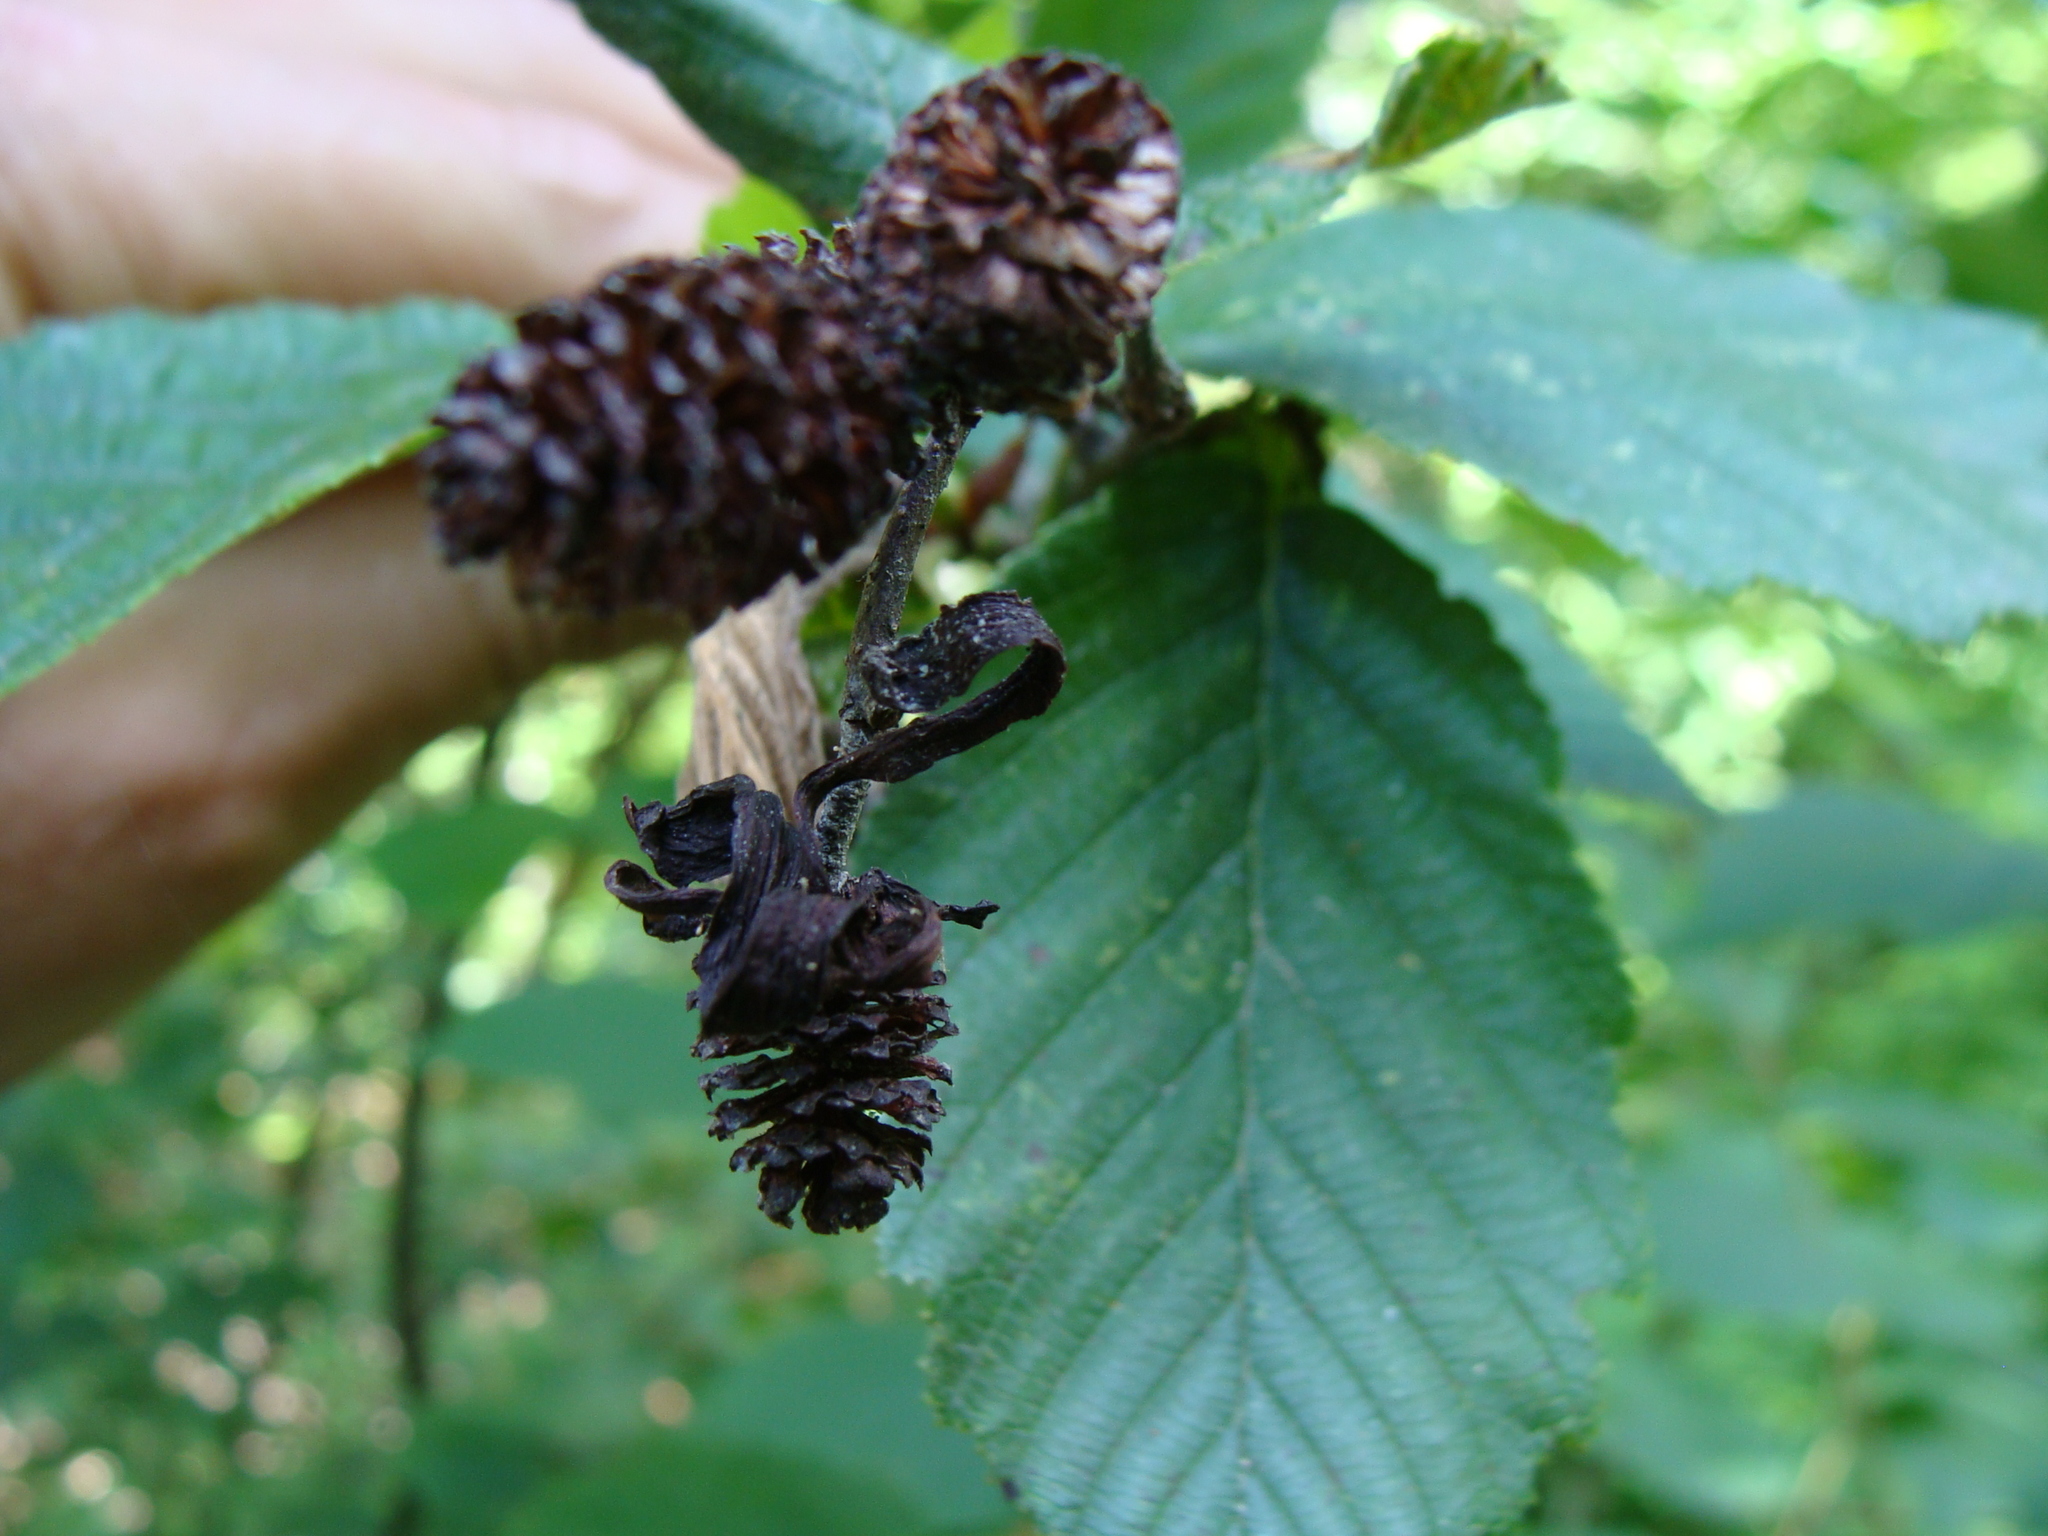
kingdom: Fungi
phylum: Ascomycota
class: Taphrinomycetes
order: Taphrinales
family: Taphrinaceae
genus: Taphrina
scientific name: Taphrina robinsoniana
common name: Eastern american alder tongue gall fungus
